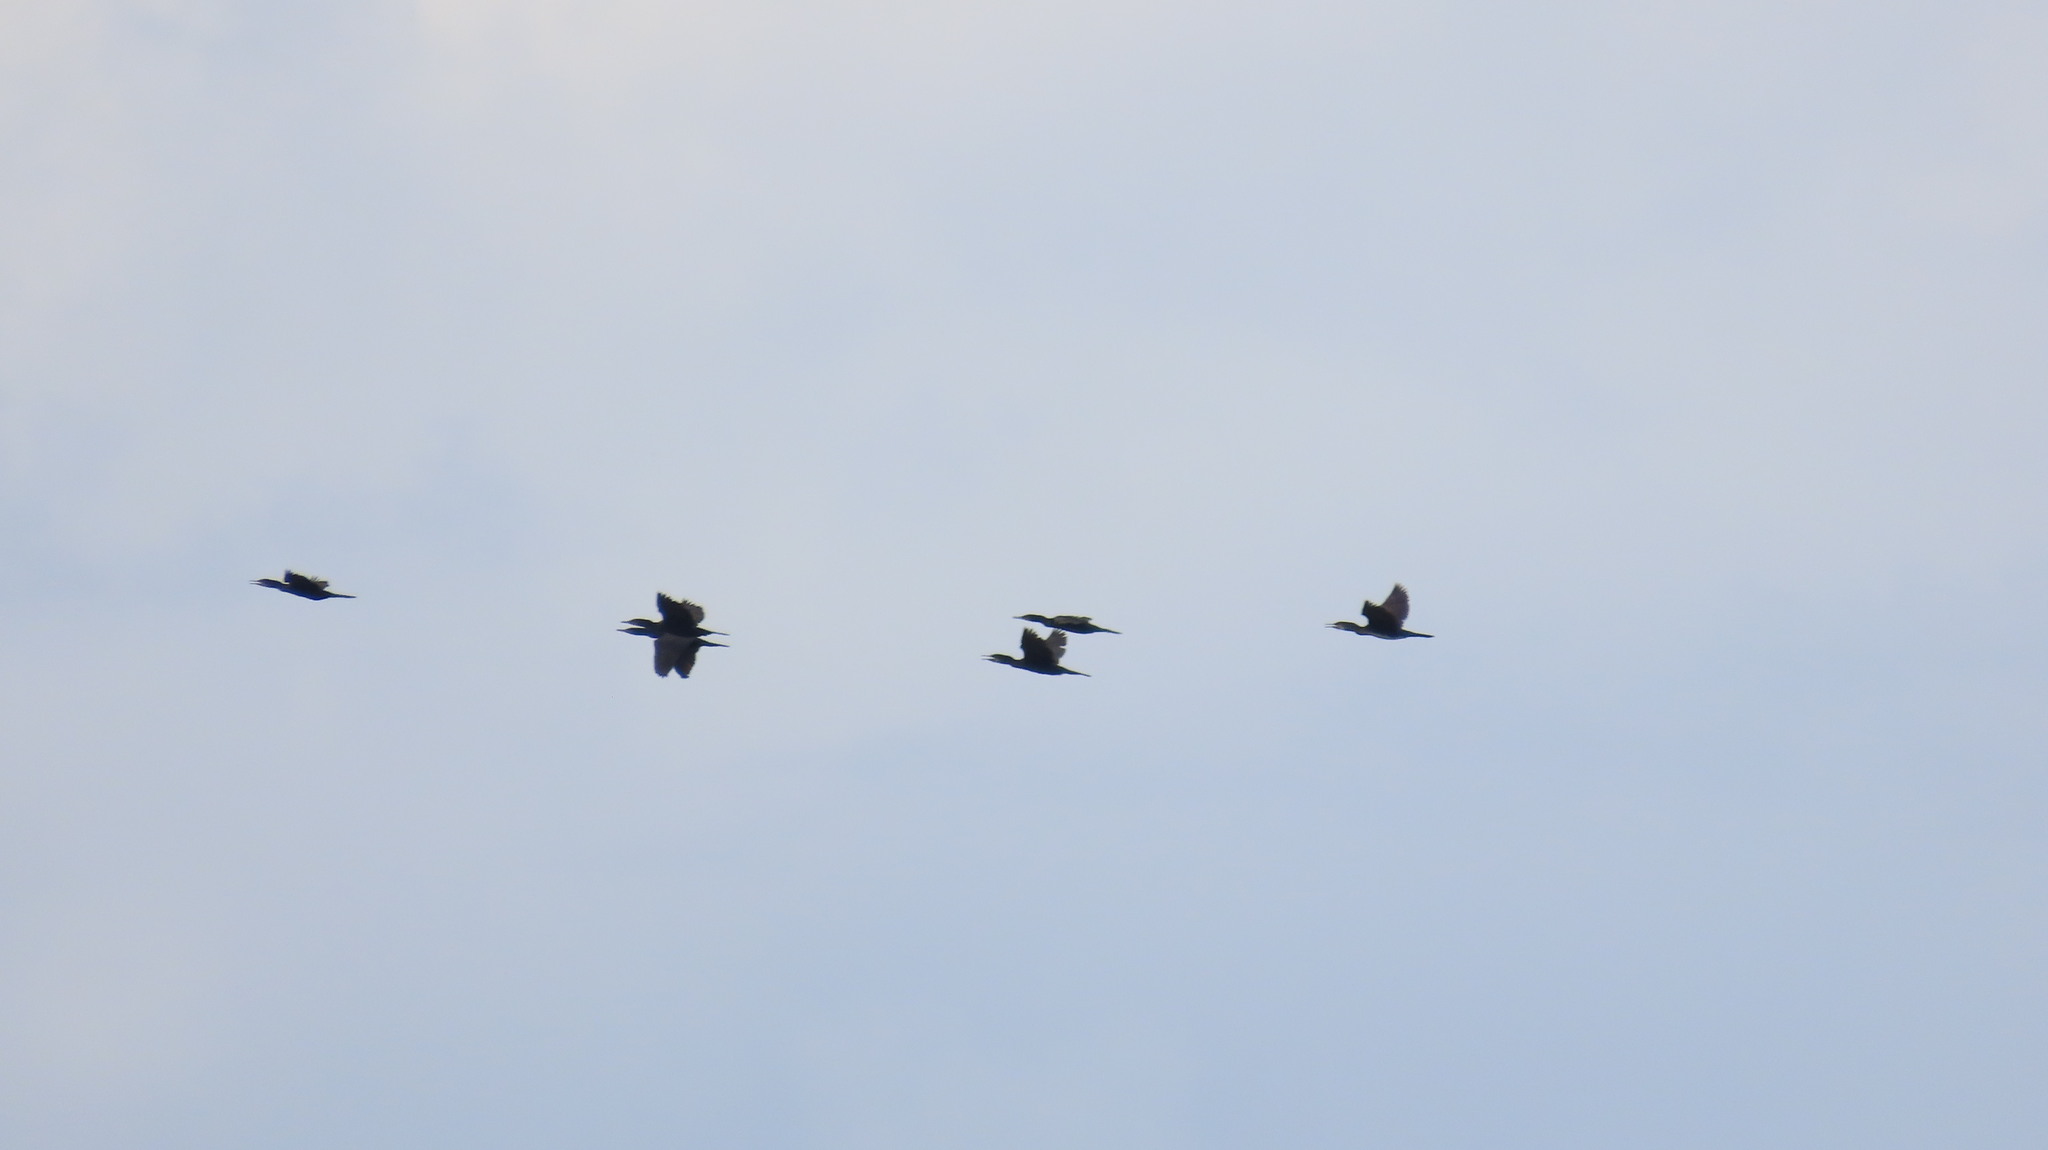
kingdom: Animalia
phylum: Chordata
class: Aves
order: Suliformes
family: Phalacrocoracidae
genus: Phalacrocorax
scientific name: Phalacrocorax fuscicollis
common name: Indian cormorant
